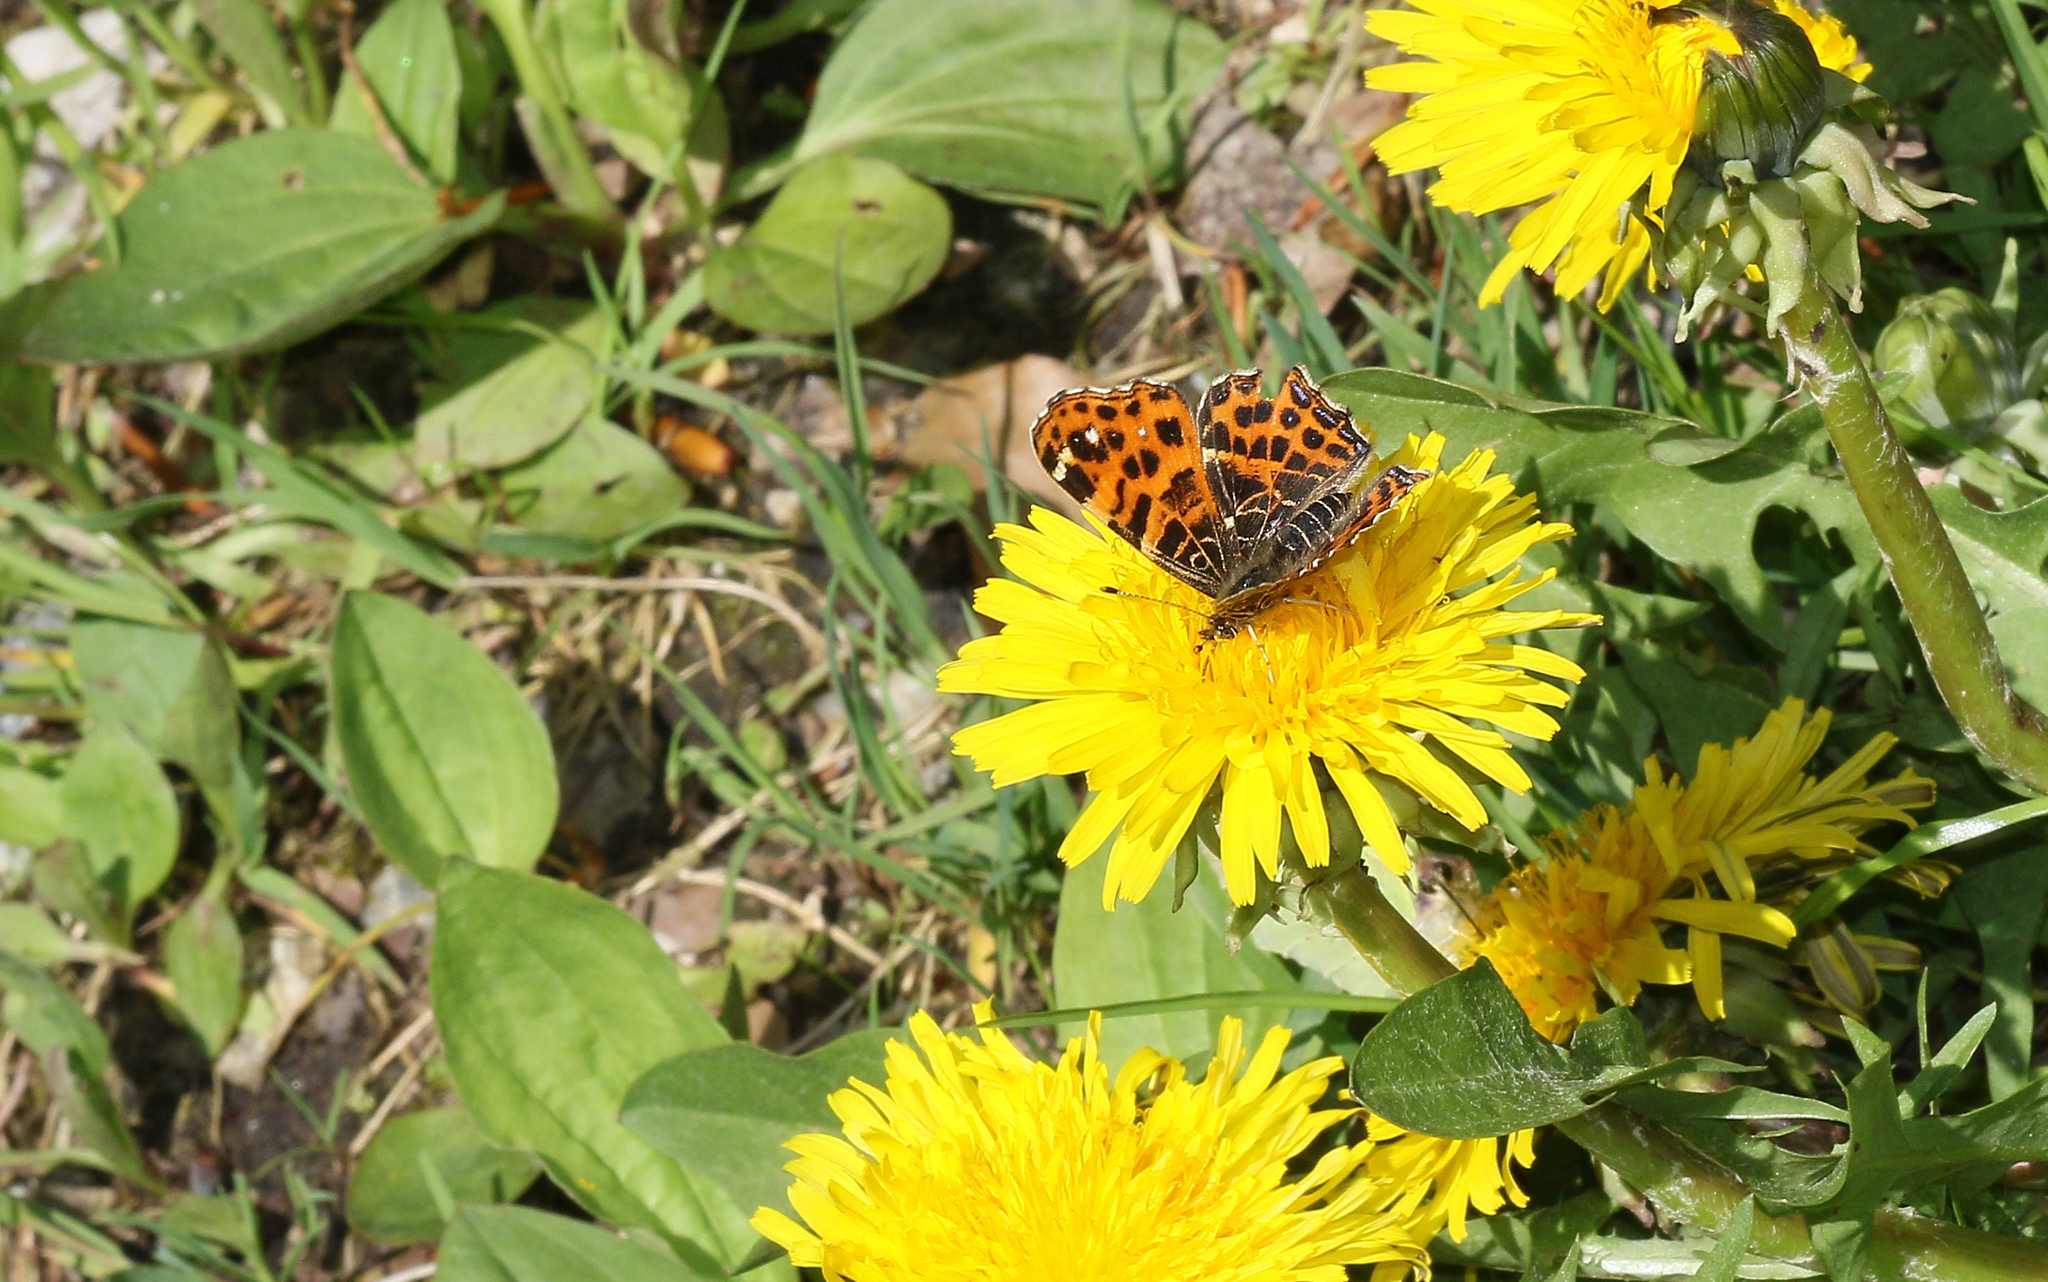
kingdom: Animalia
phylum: Arthropoda
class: Insecta
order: Lepidoptera
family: Nymphalidae
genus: Araschnia
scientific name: Araschnia levana
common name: Map butterfly
